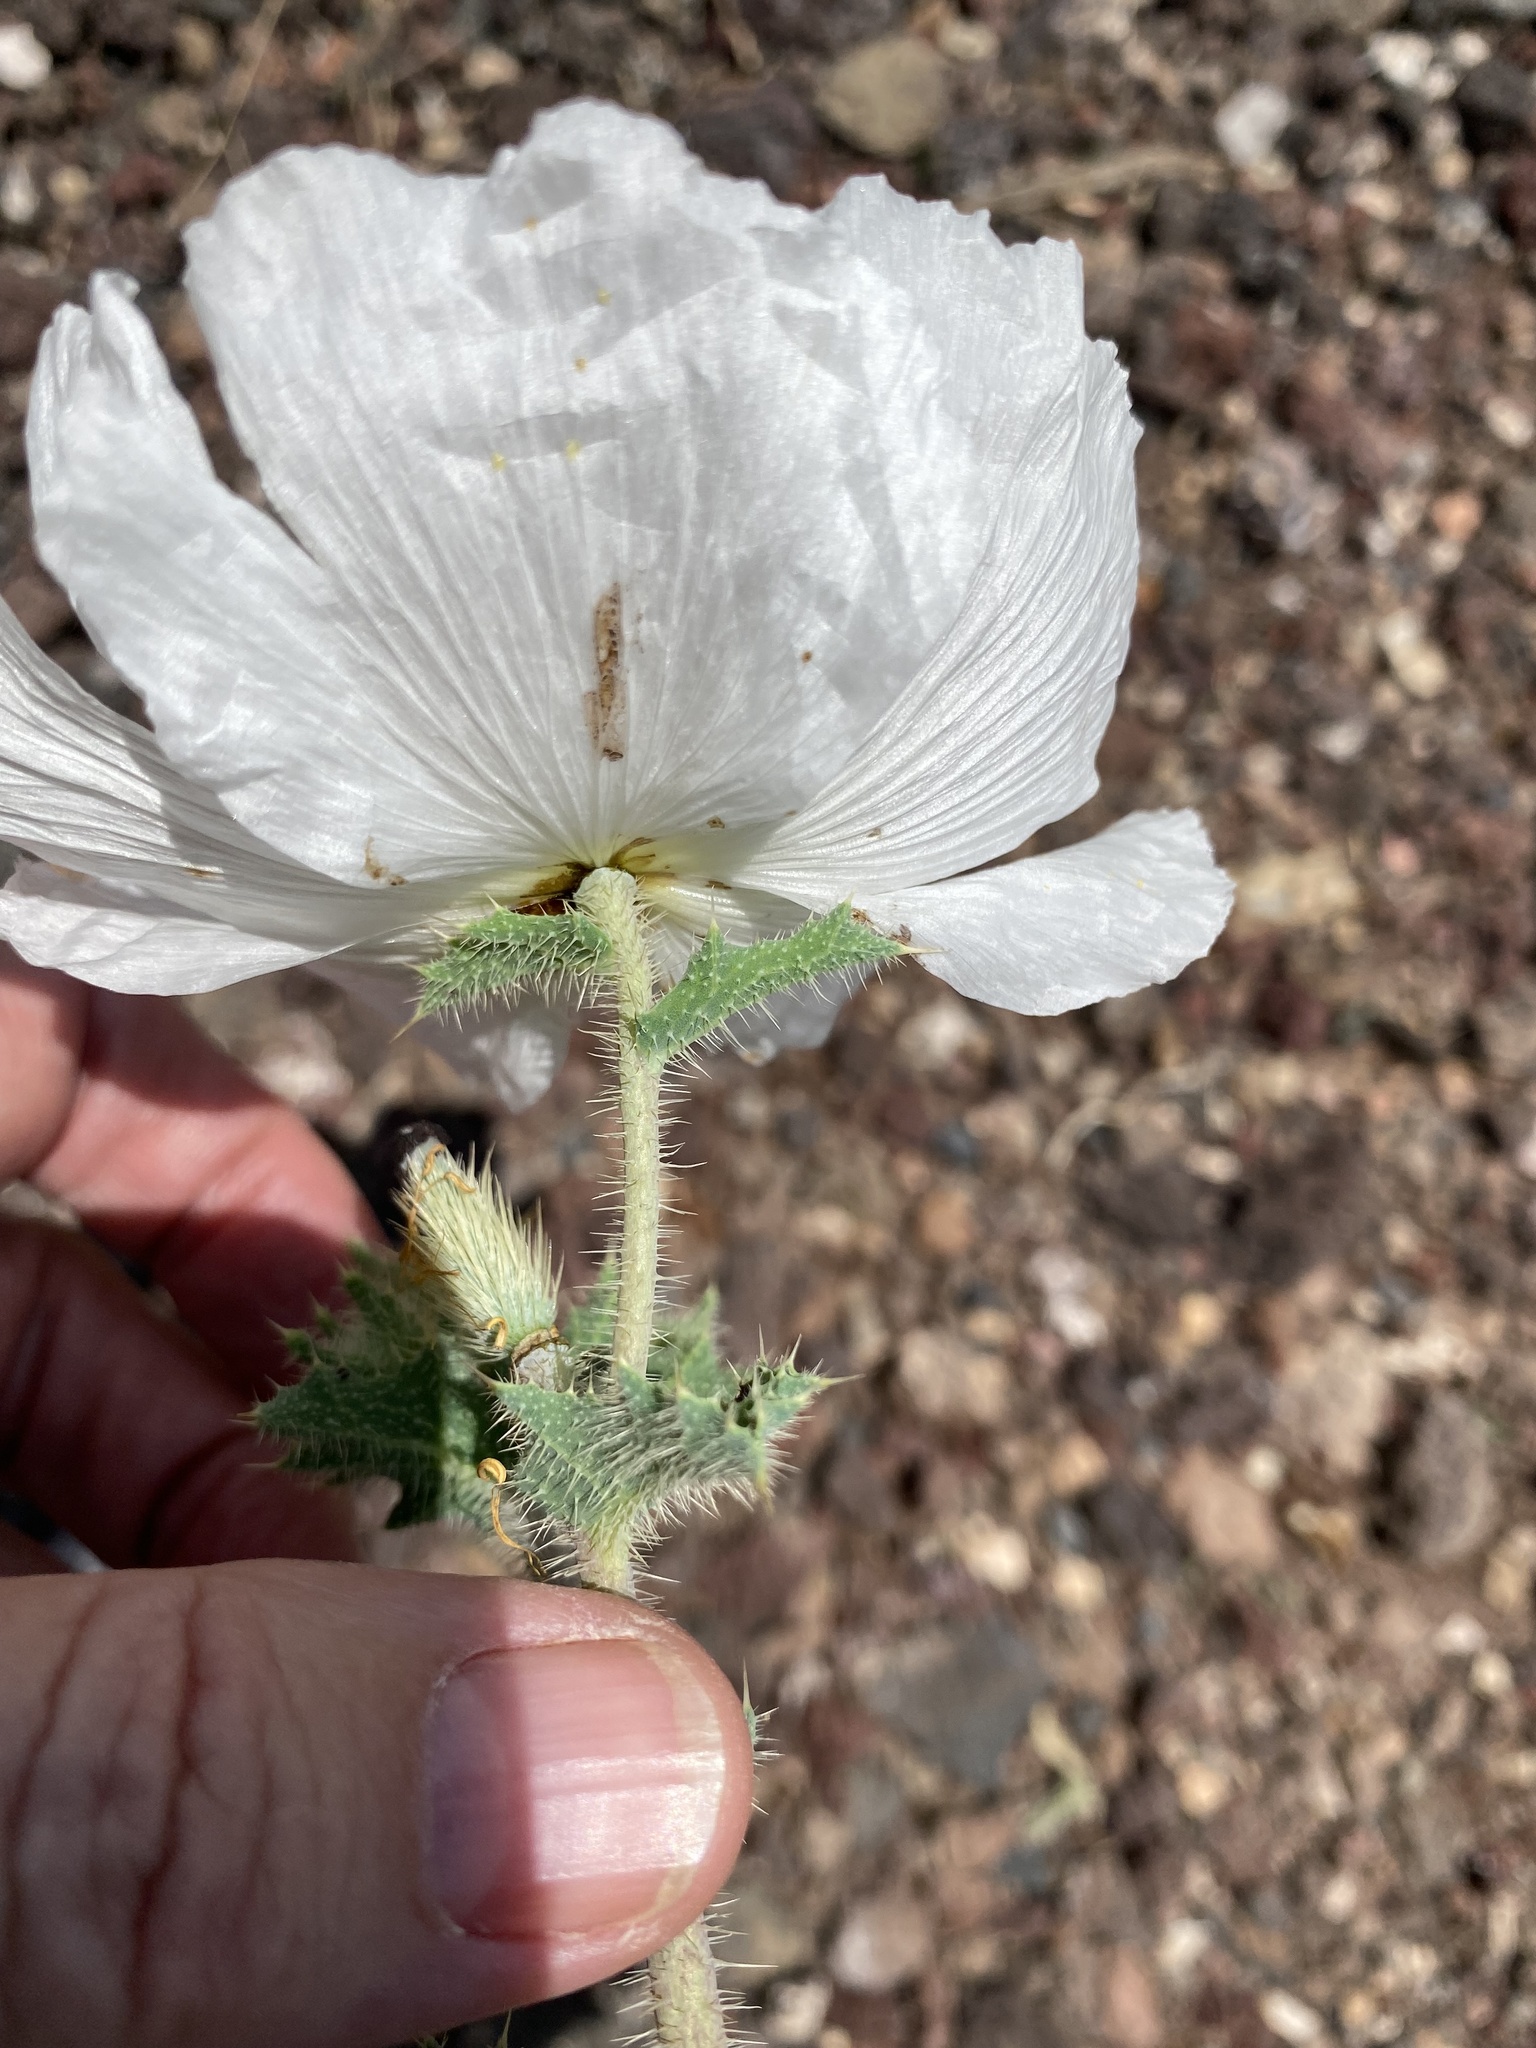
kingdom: Plantae
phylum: Tracheophyta
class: Magnoliopsida
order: Ranunculales
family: Papaveraceae
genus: Argemone
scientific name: Argemone munita
